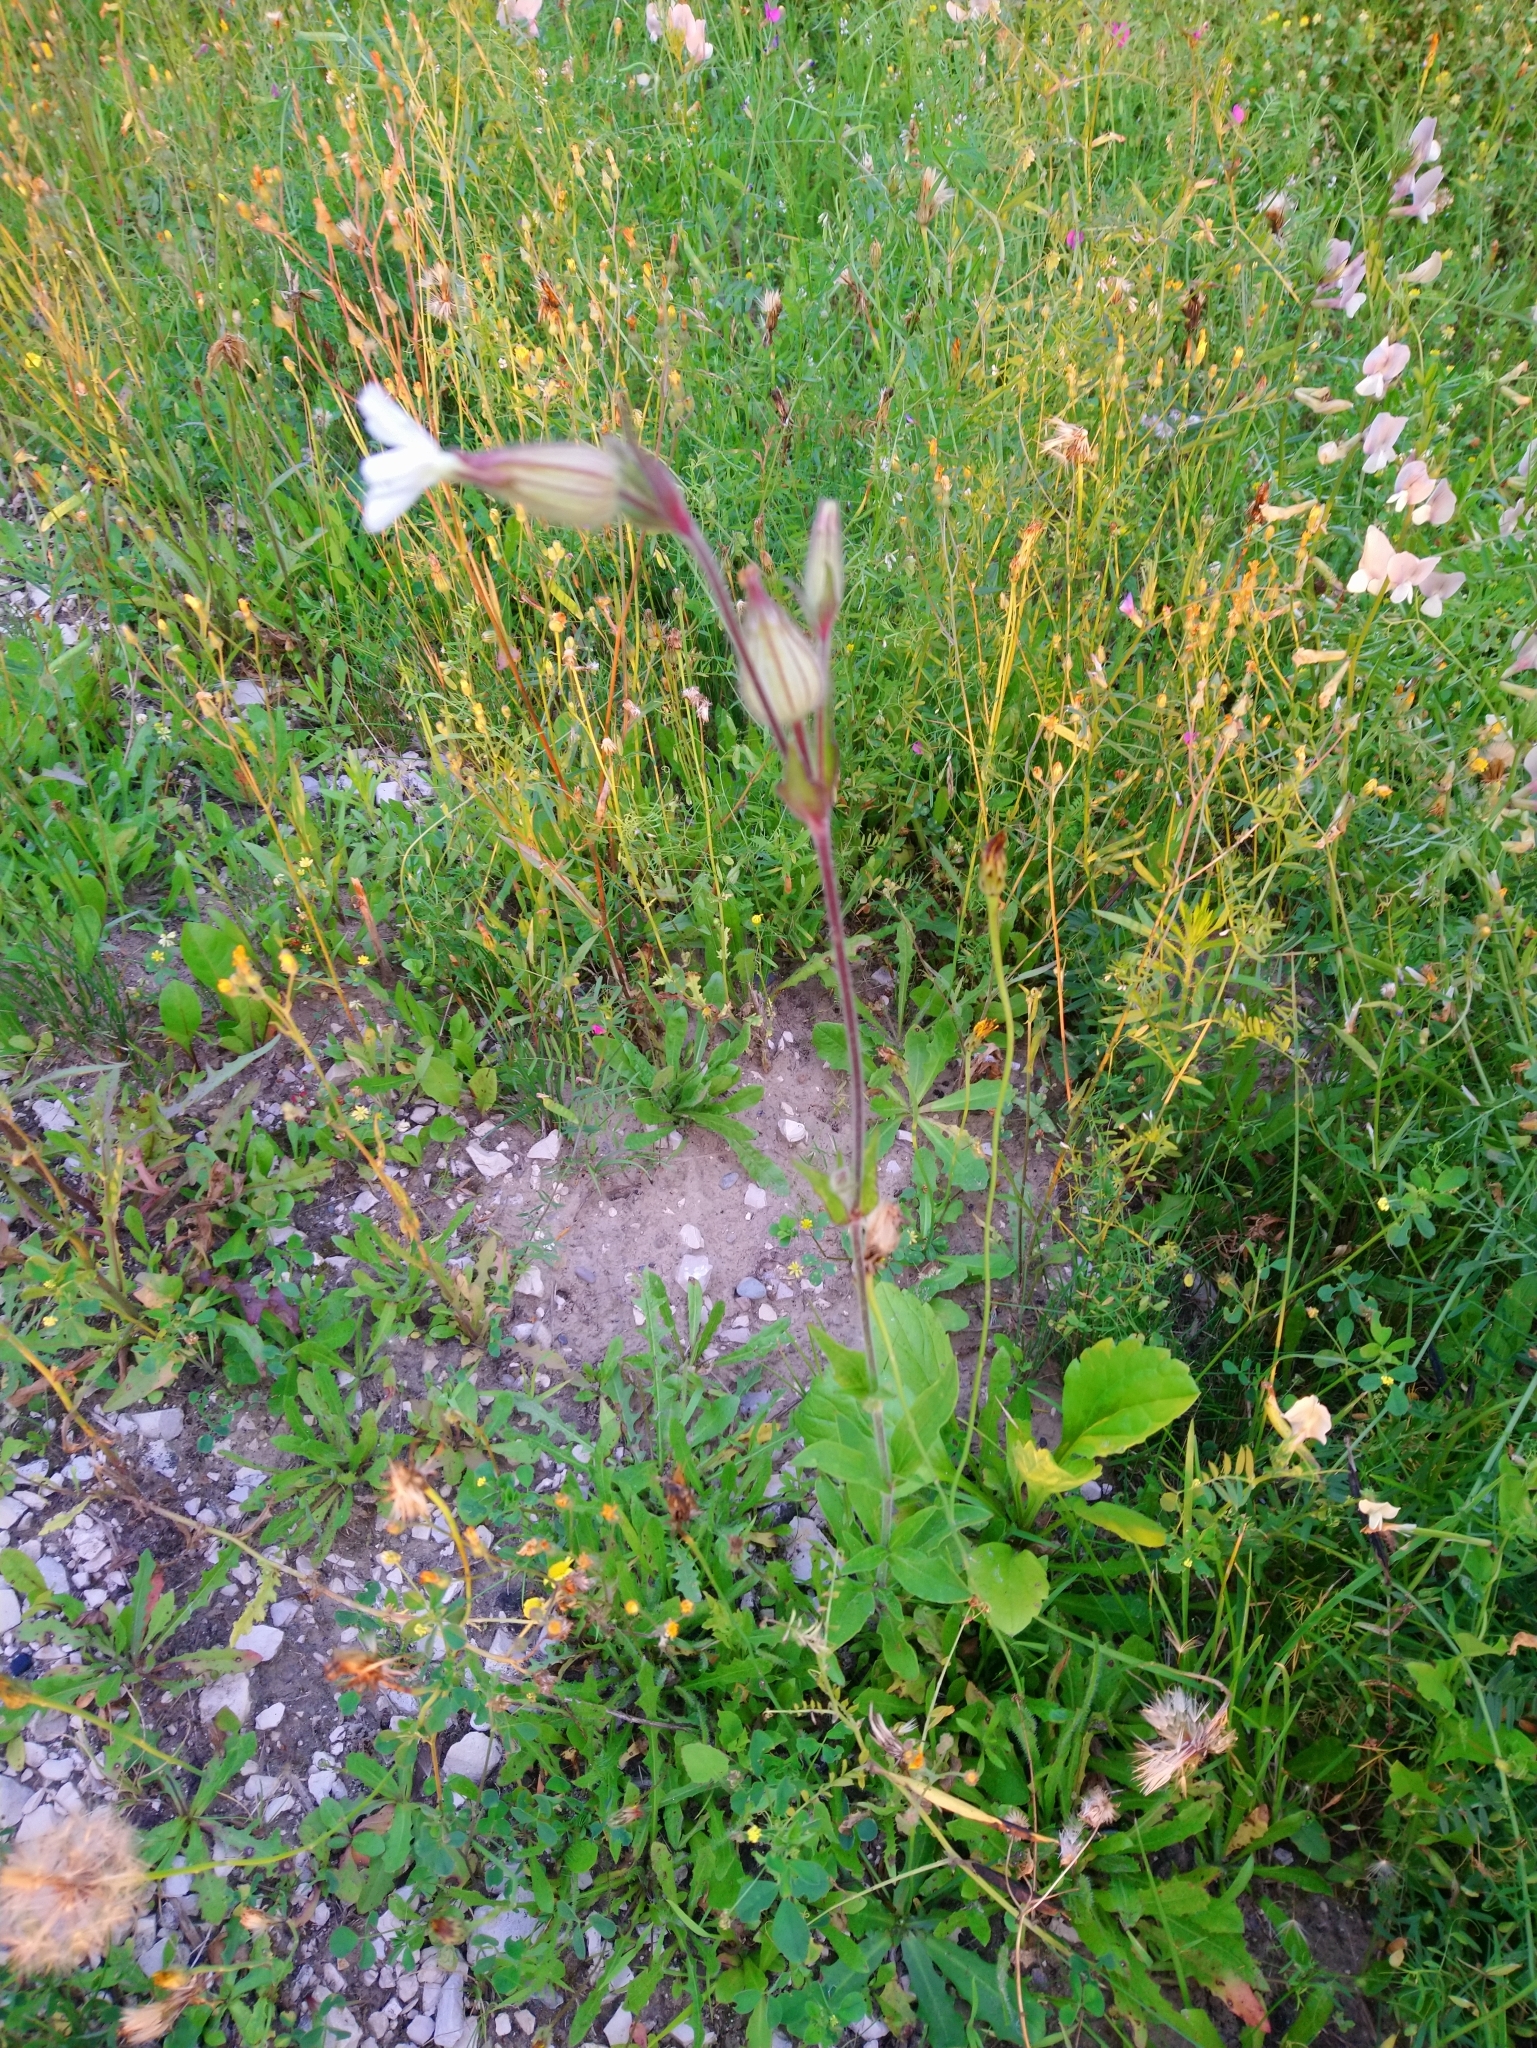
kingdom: Plantae
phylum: Tracheophyta
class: Magnoliopsida
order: Caryophyllales
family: Caryophyllaceae
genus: Silene
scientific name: Silene latifolia
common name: White campion
